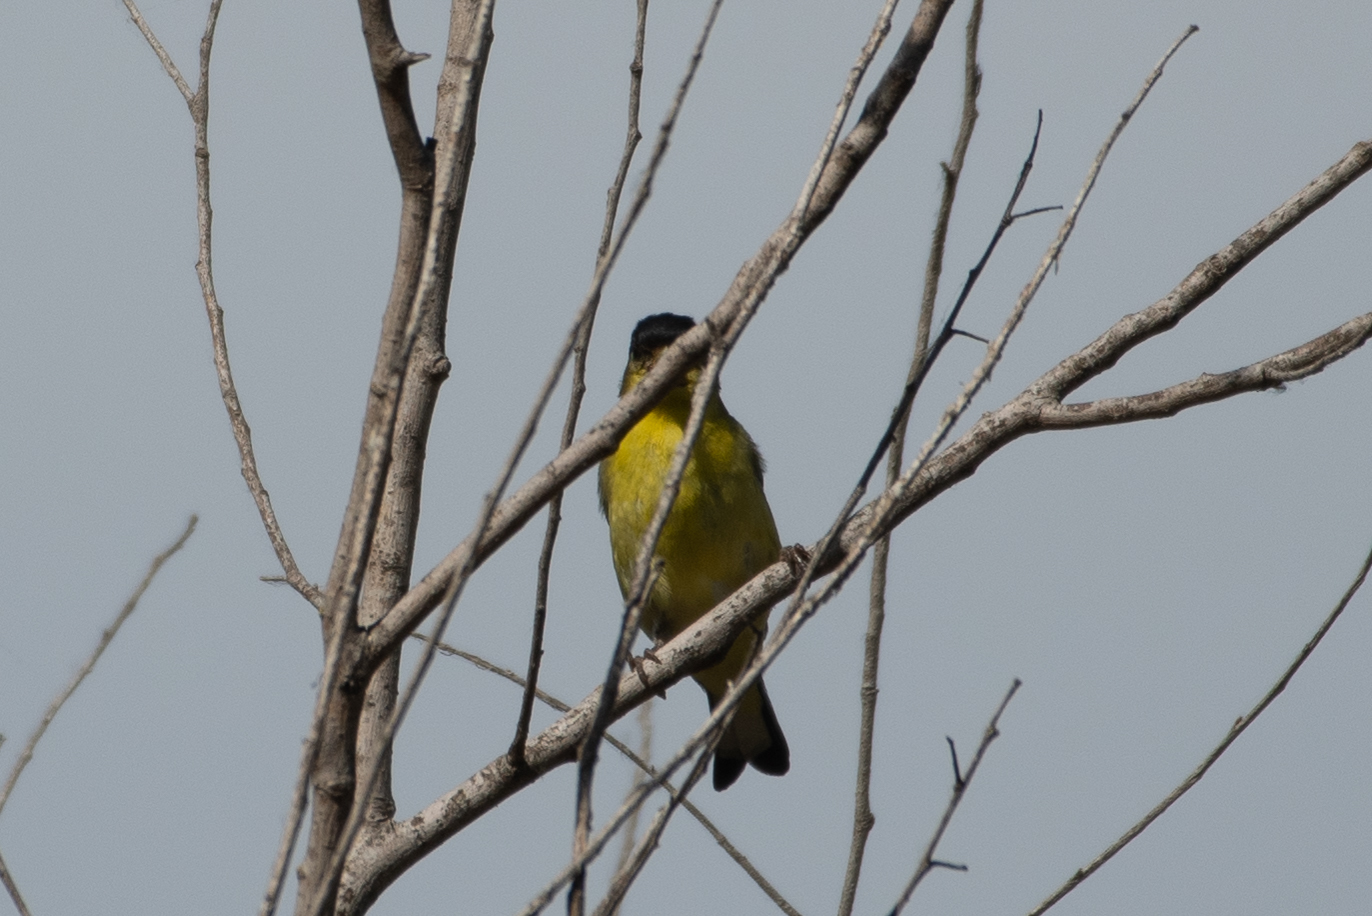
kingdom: Animalia
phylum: Chordata
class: Aves
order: Passeriformes
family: Fringillidae
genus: Spinus
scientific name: Spinus psaltria
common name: Lesser goldfinch
